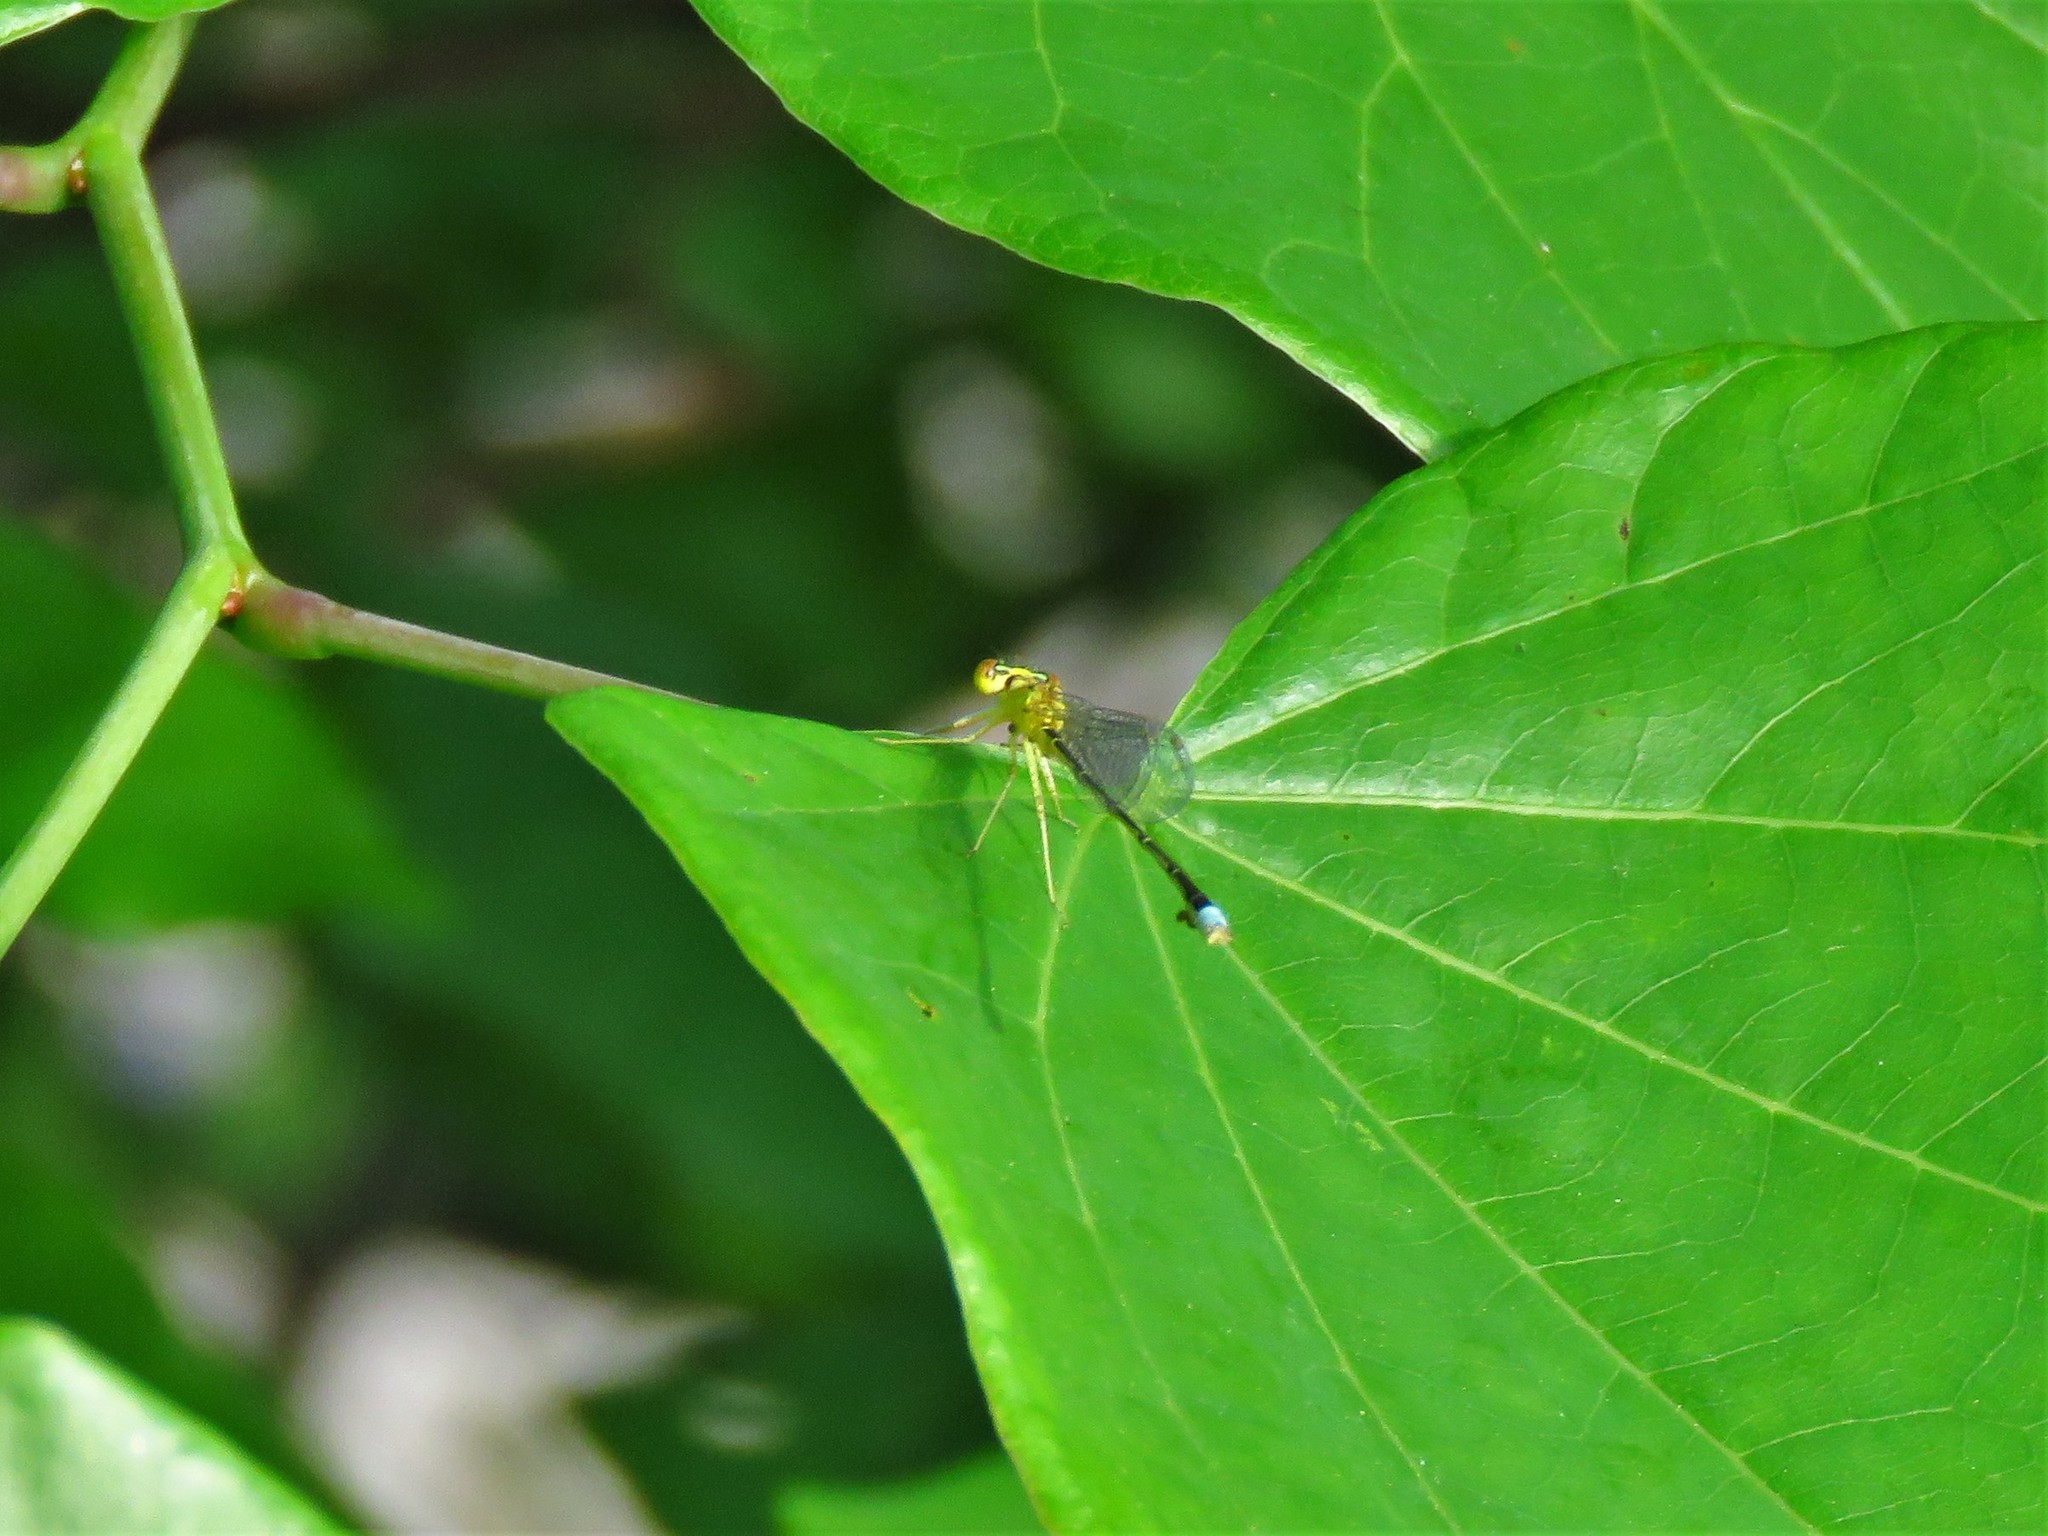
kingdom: Animalia
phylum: Arthropoda
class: Insecta
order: Odonata
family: Coenagrionidae
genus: Enallagma
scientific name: Enallagma vesperum
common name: Vesper bluet
